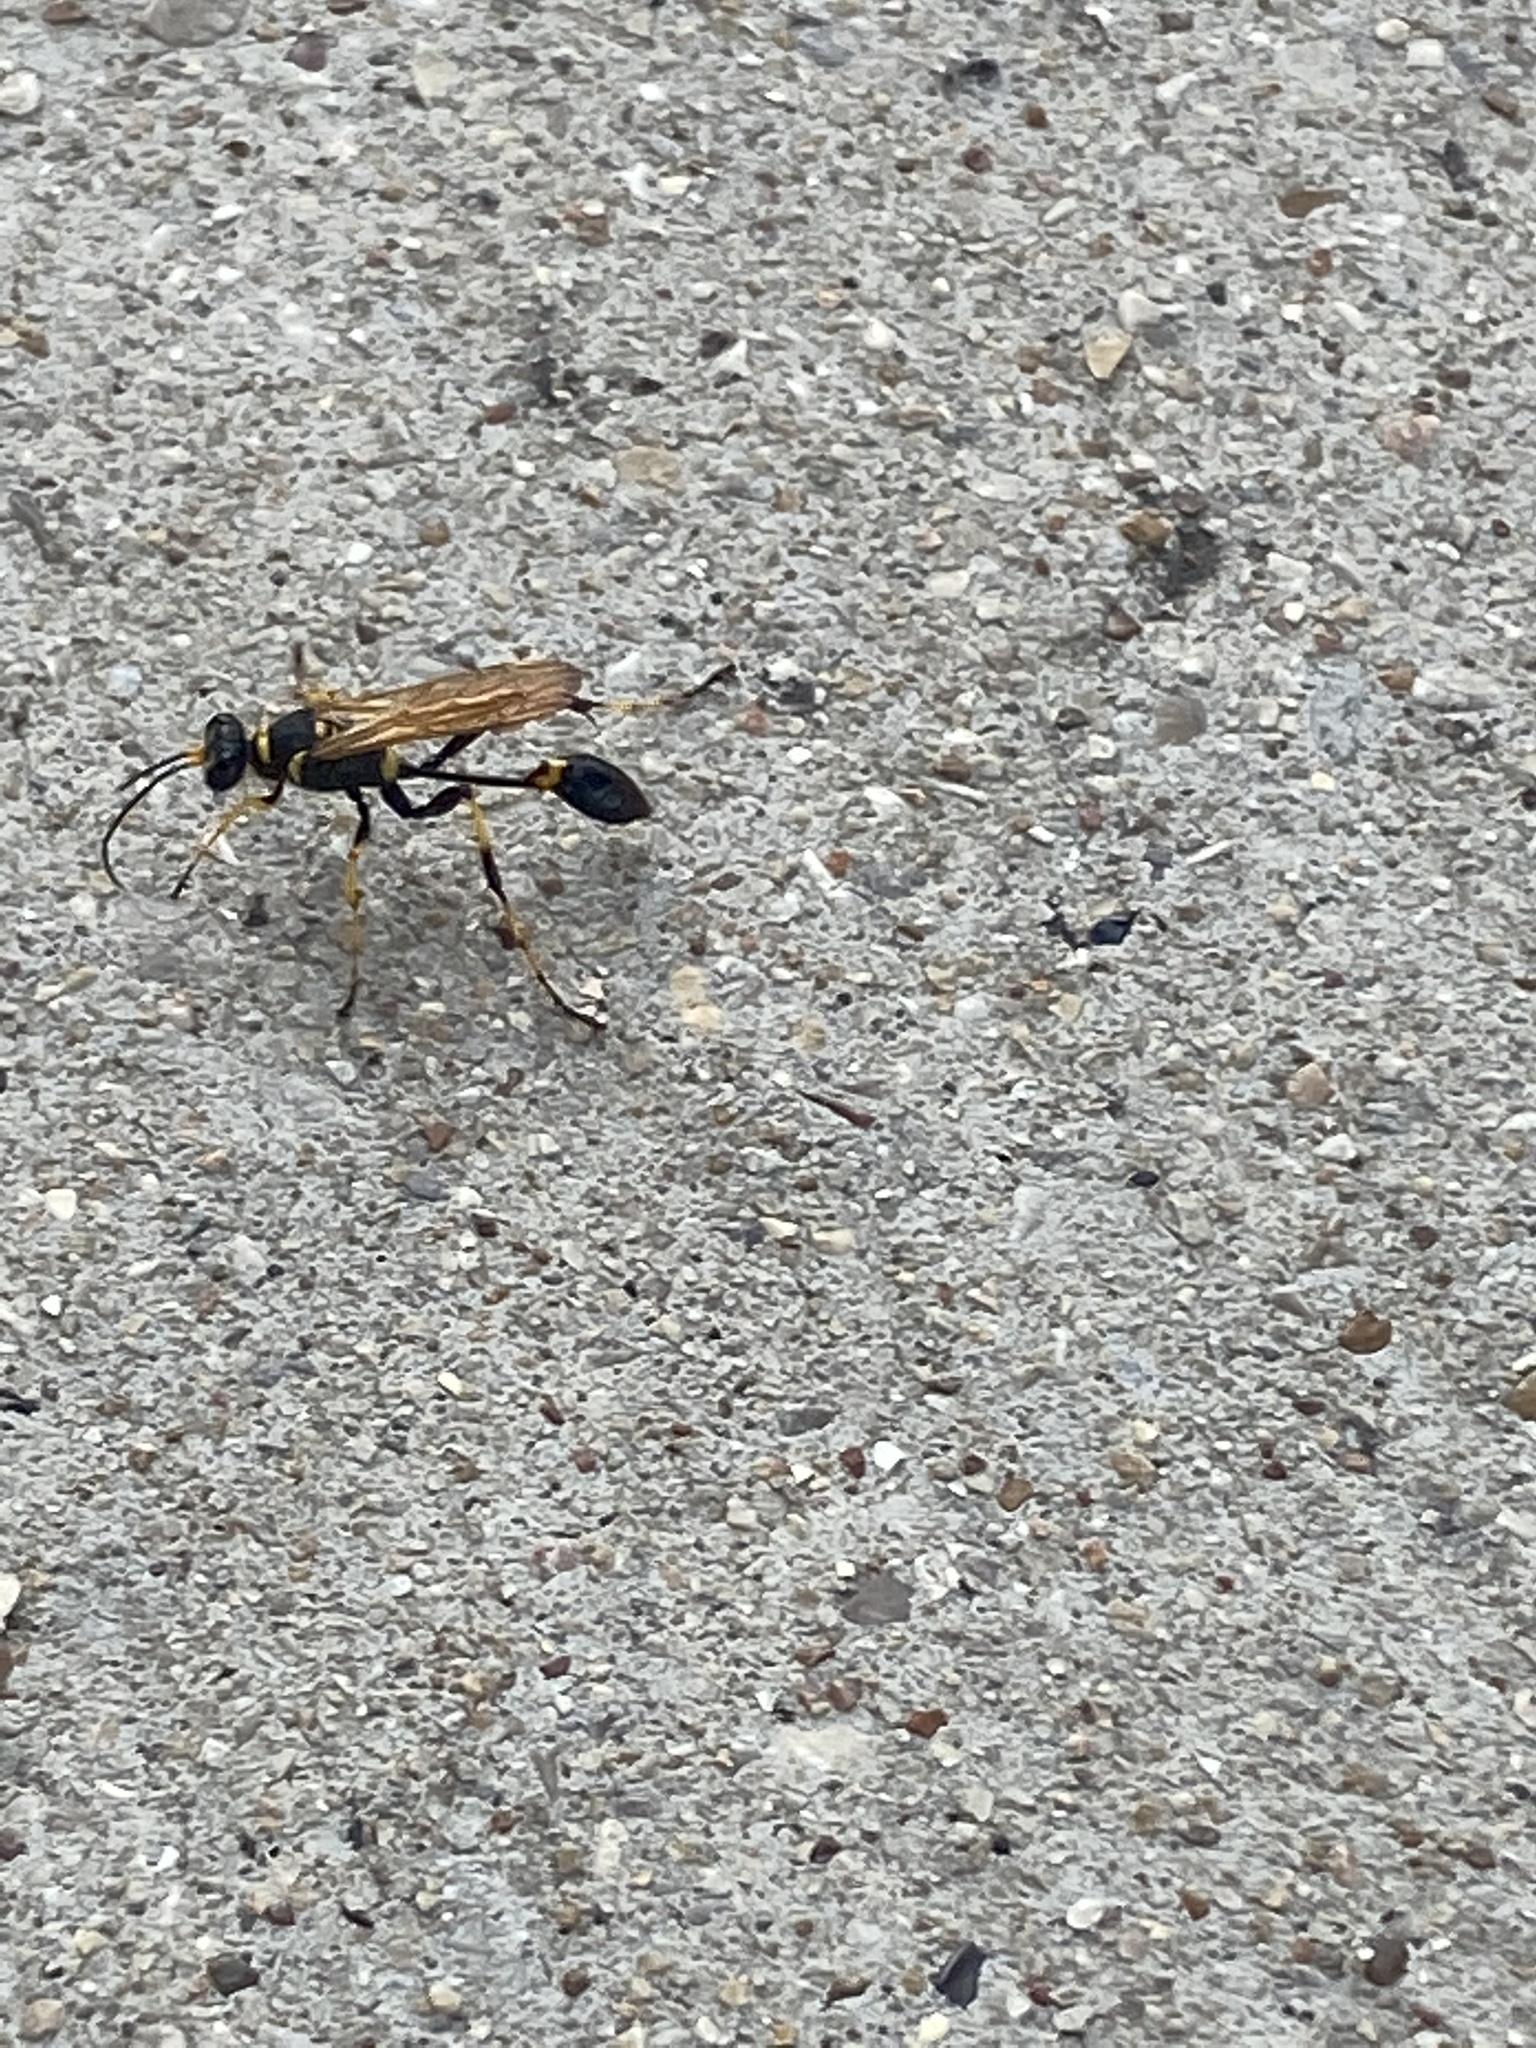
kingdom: Animalia
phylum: Arthropoda
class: Insecta
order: Hymenoptera
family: Sphecidae
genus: Sceliphron
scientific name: Sceliphron caementarium
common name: Mud dauber
